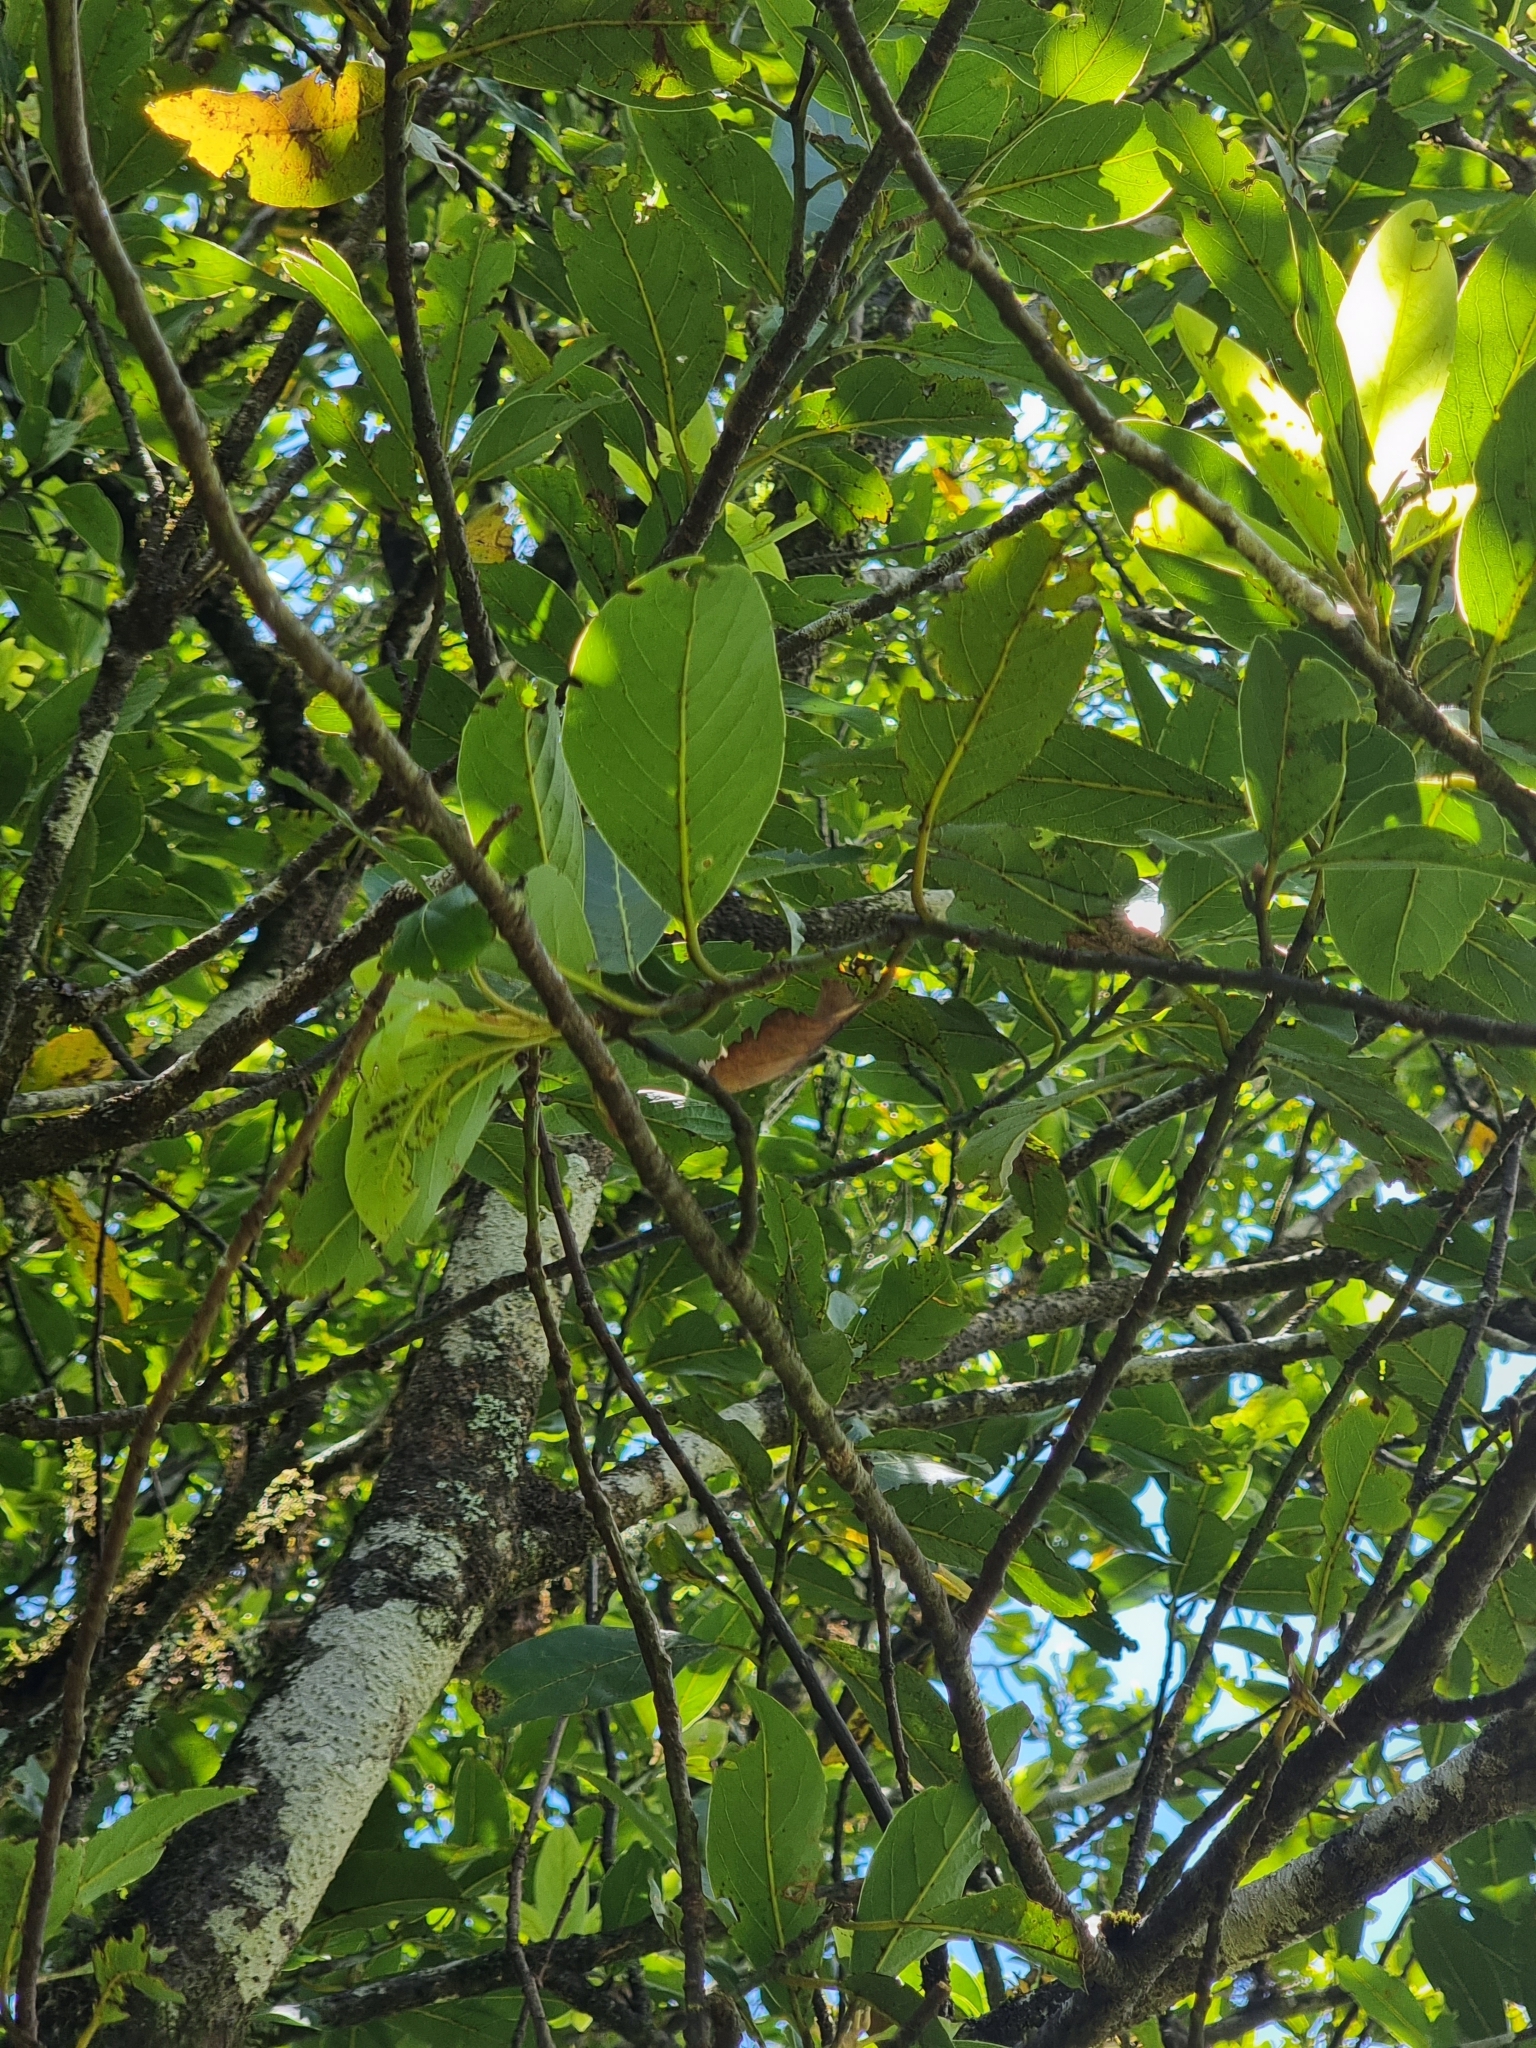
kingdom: Plantae
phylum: Tracheophyta
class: Magnoliopsida
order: Laurales
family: Lauraceae
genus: Laurus
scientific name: Laurus novocanariensis
